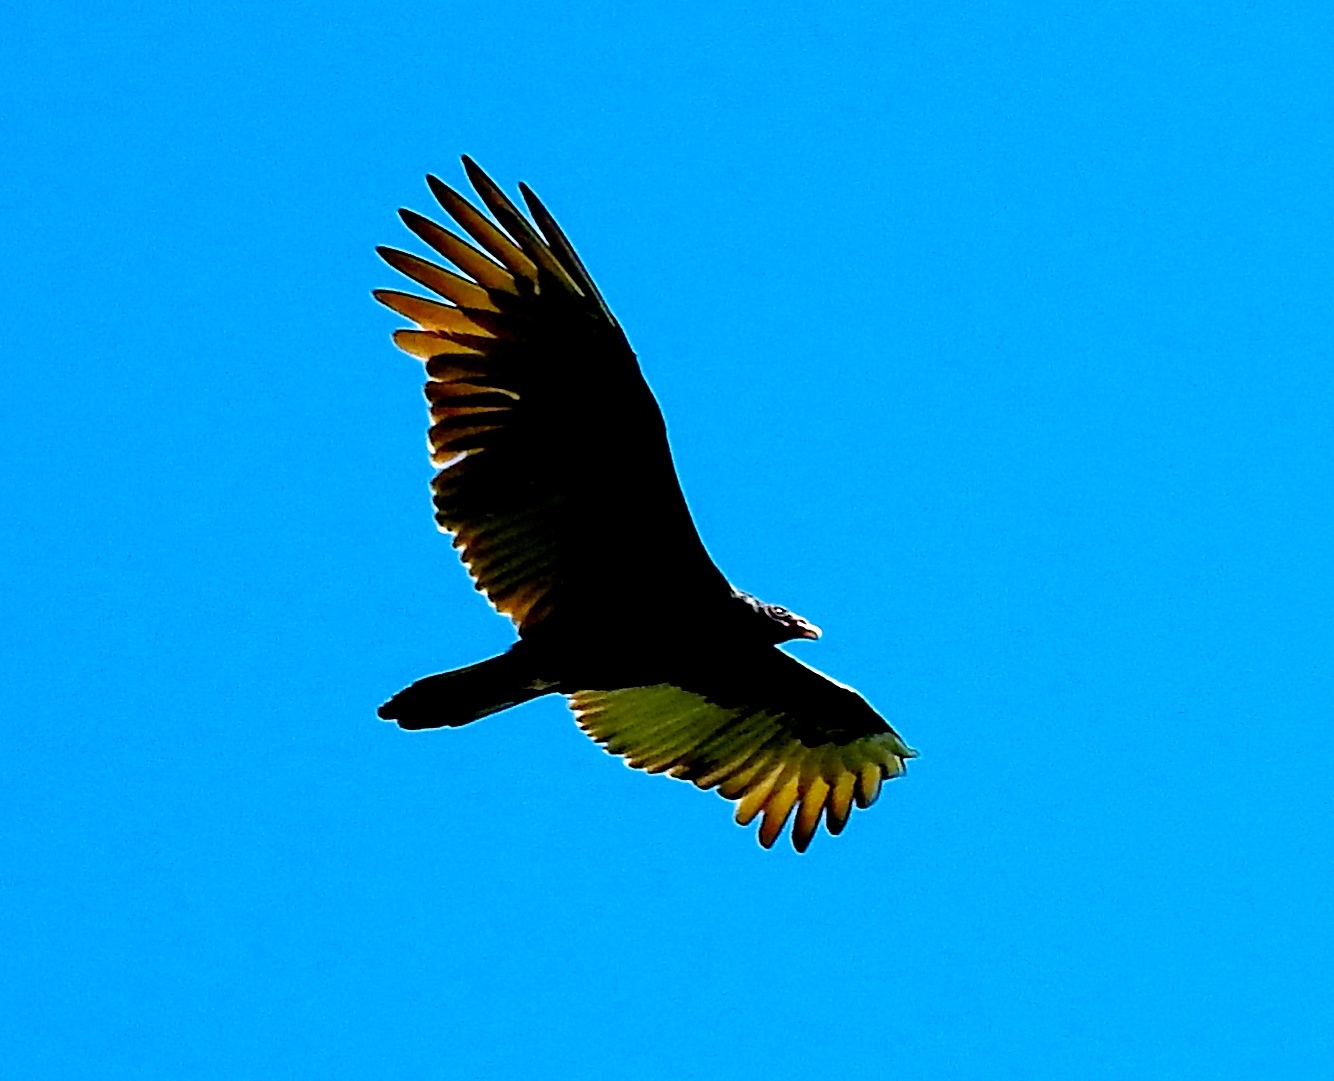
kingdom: Animalia
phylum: Chordata
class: Aves
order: Accipitriformes
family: Cathartidae
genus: Cathartes
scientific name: Cathartes aura
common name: Turkey vulture
